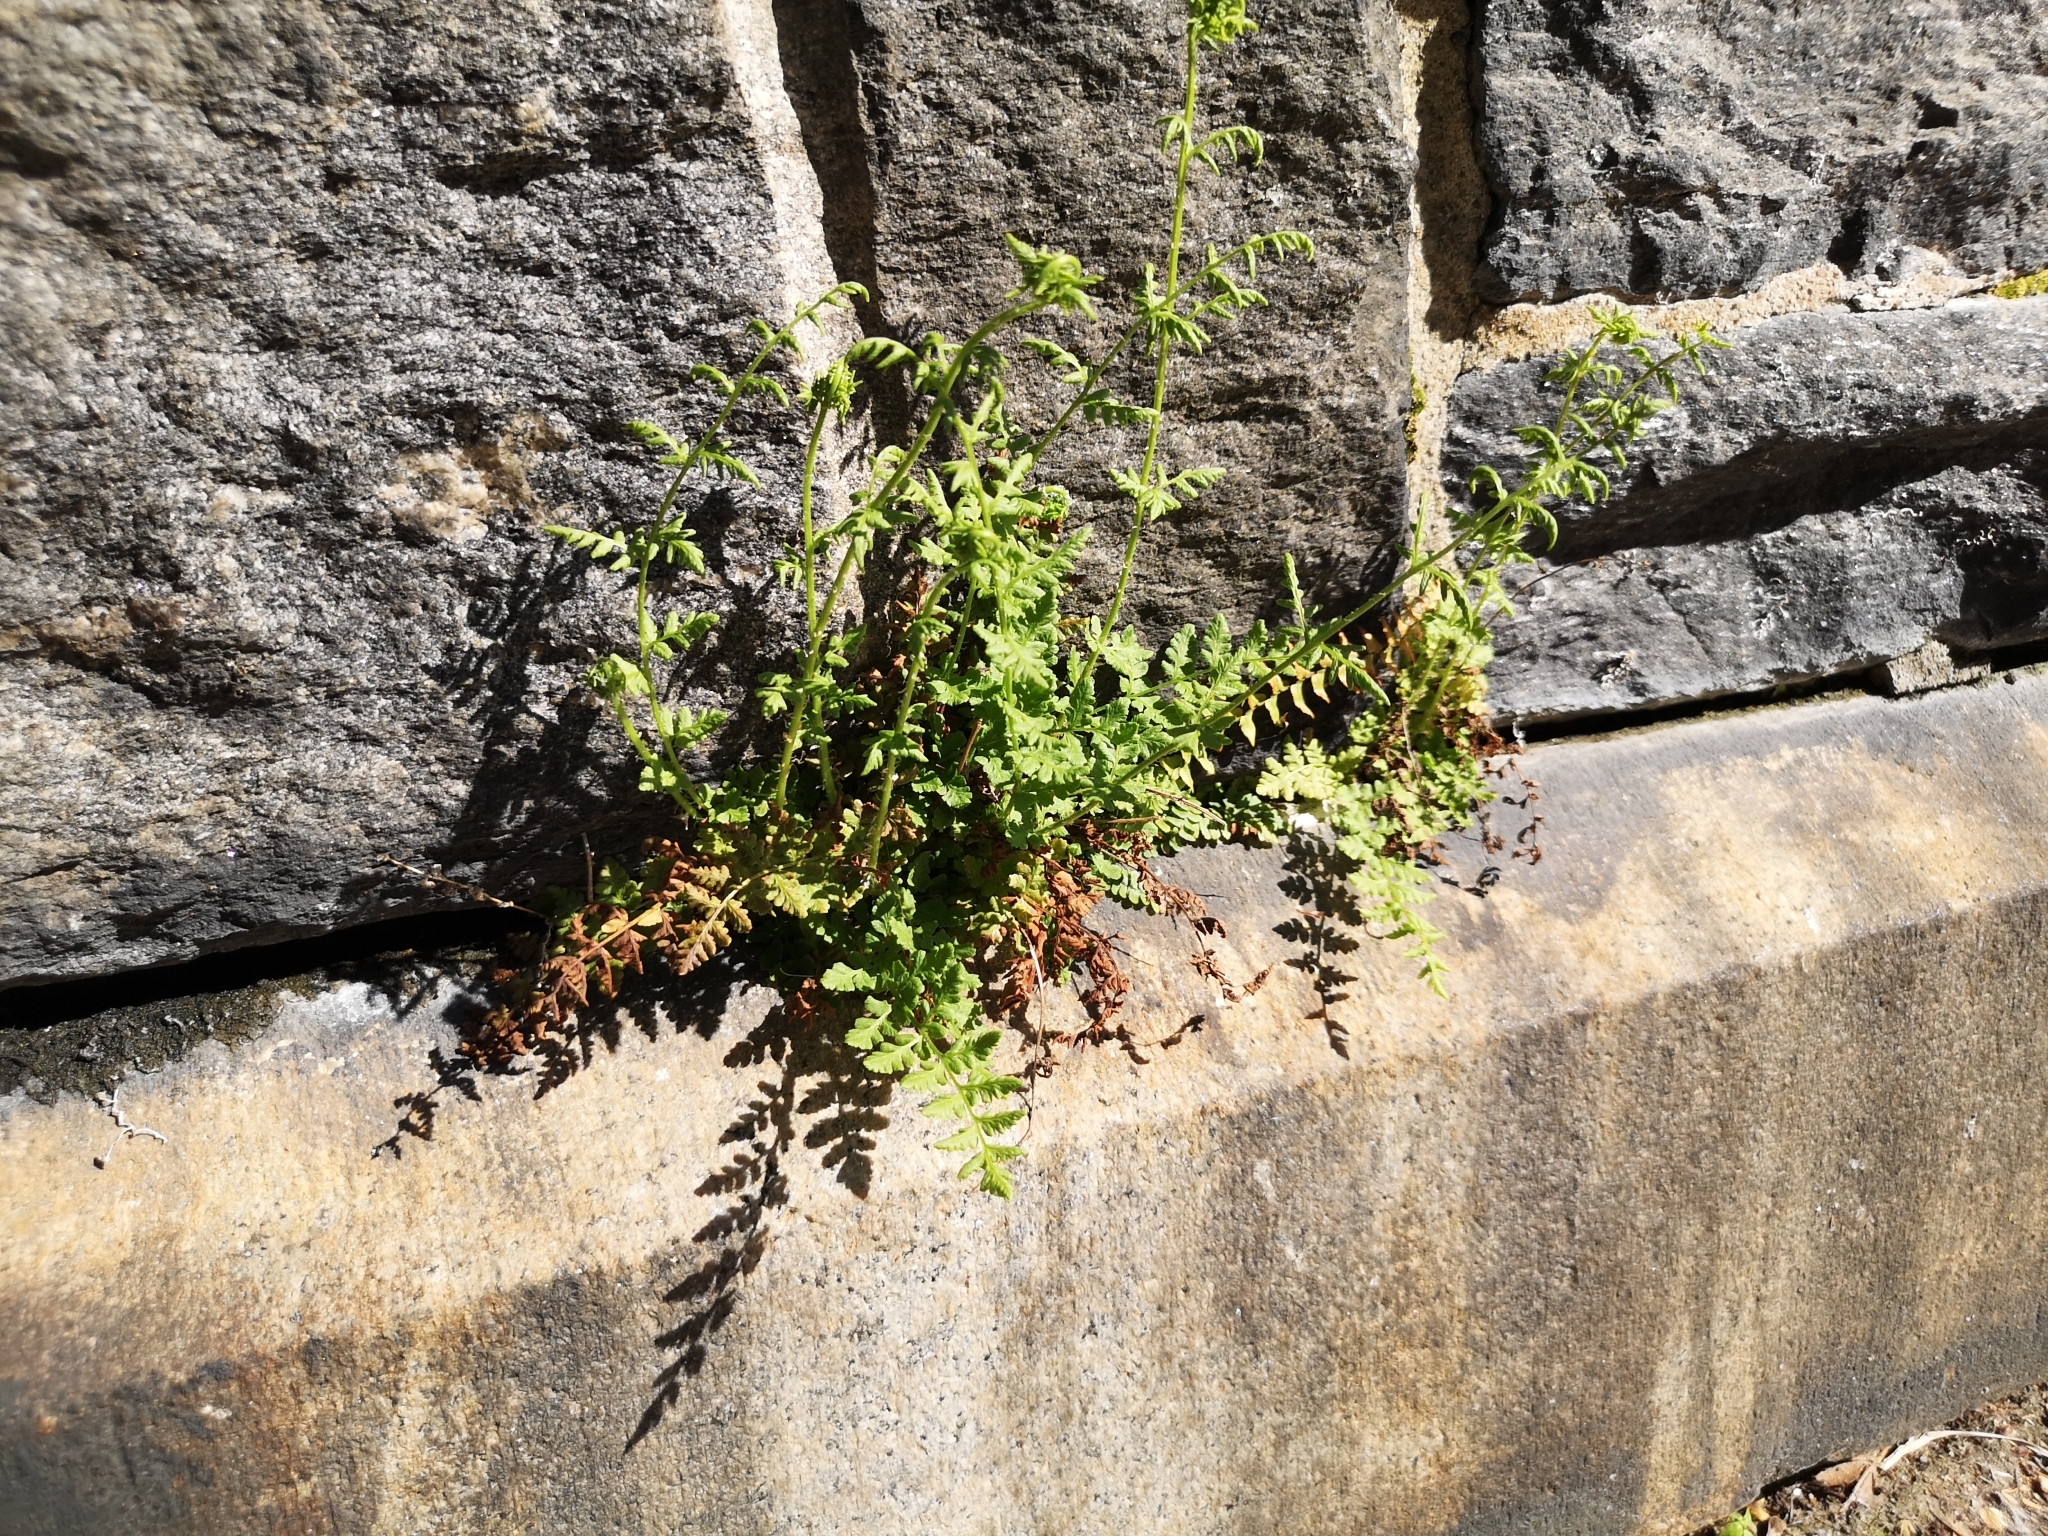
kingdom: Plantae
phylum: Tracheophyta
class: Polypodiopsida
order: Polypodiales
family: Woodsiaceae
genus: Physematium
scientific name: Physematium obtusum
